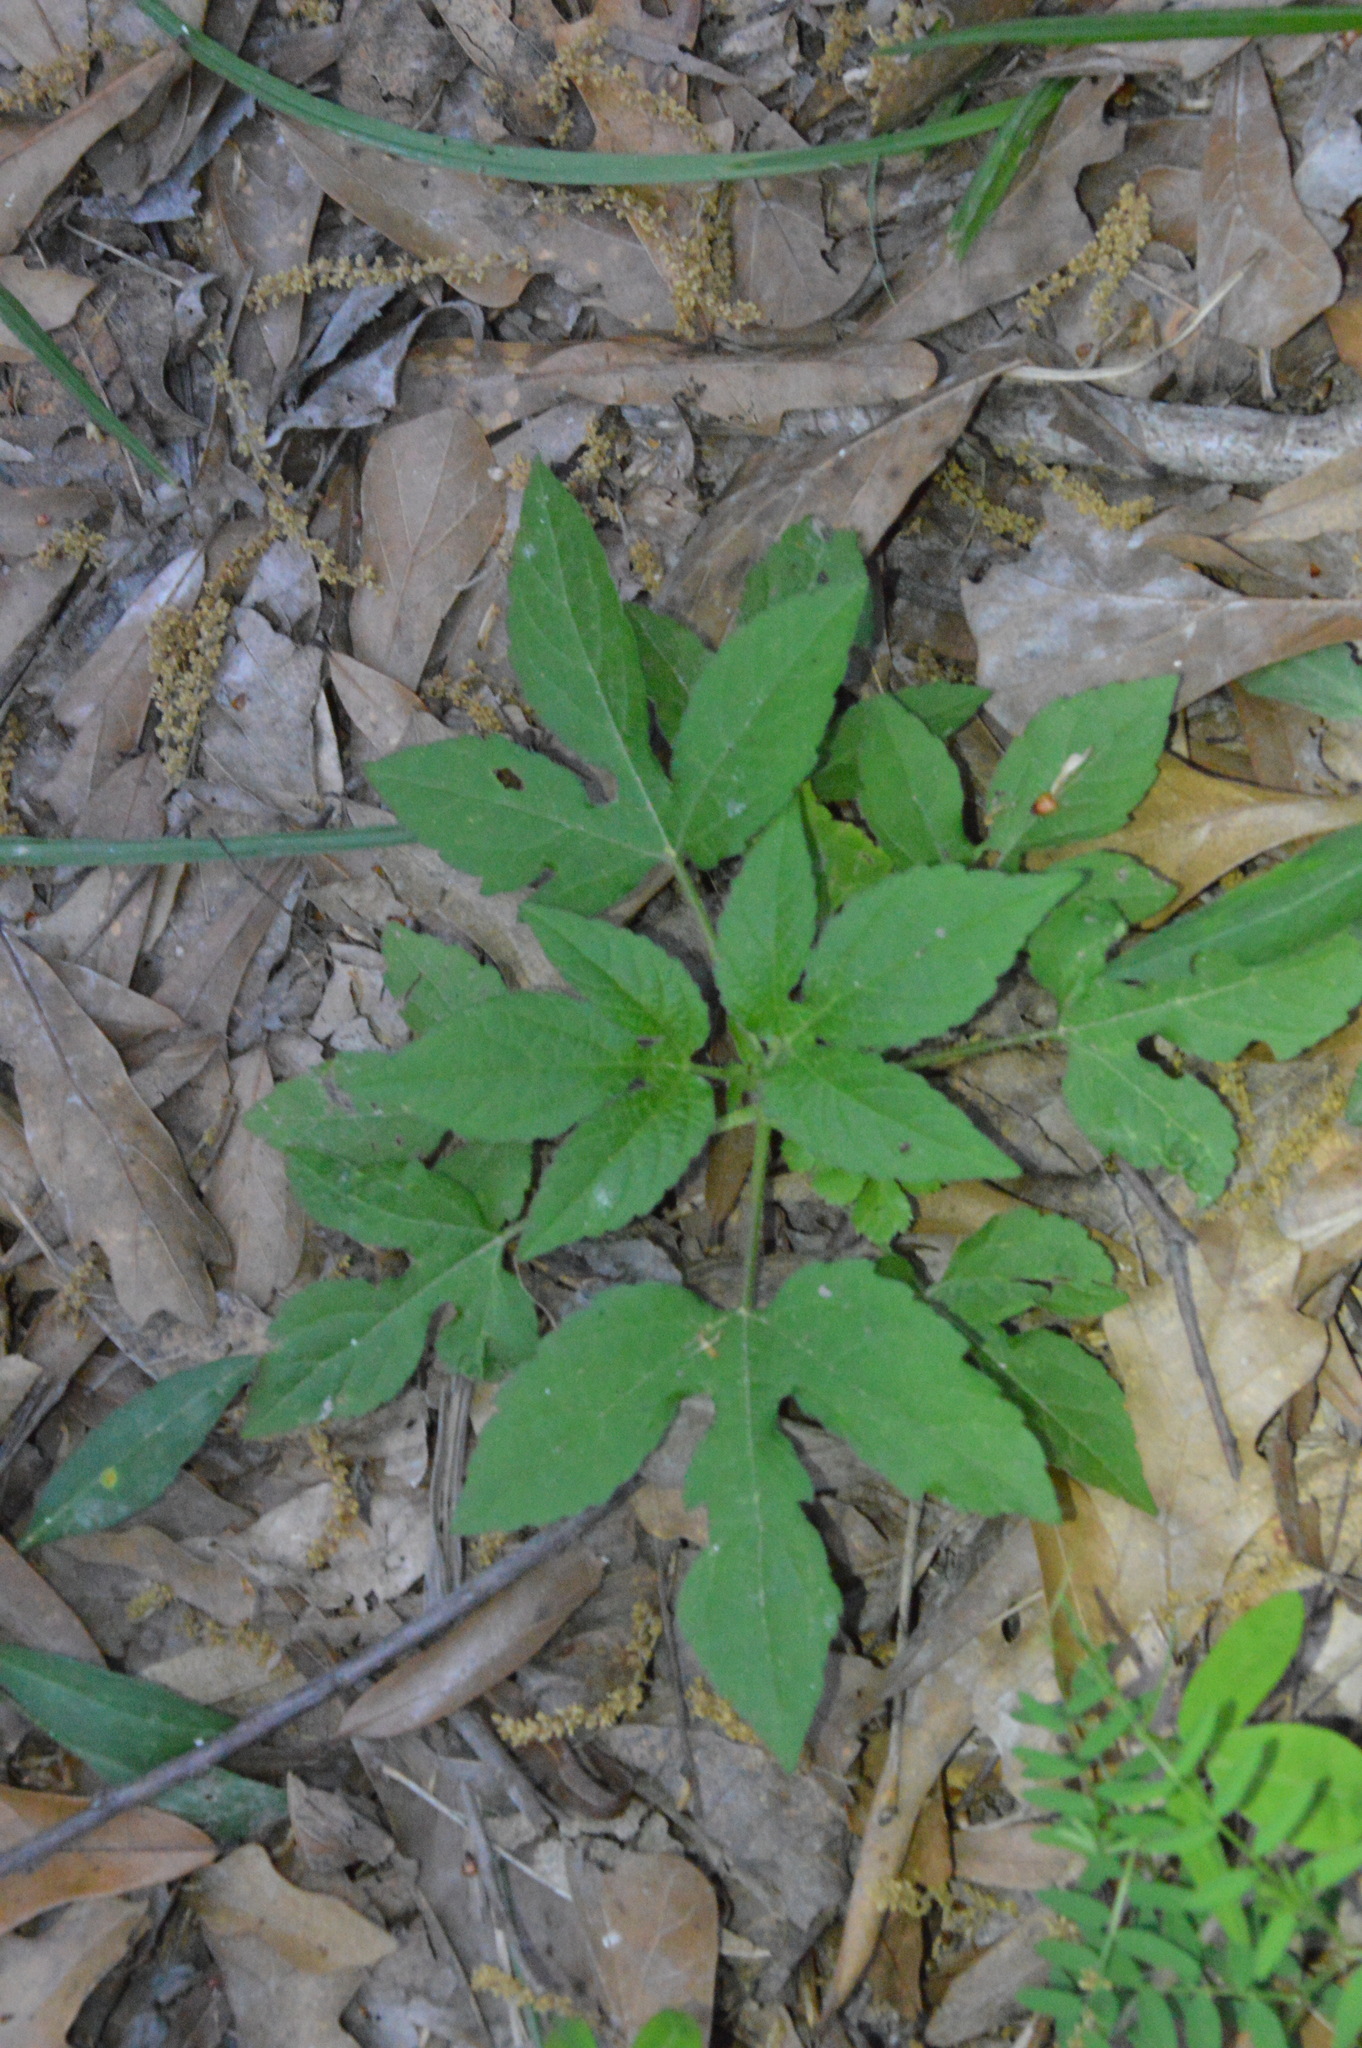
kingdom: Plantae
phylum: Tracheophyta
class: Magnoliopsida
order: Asterales
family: Asteraceae
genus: Ambrosia
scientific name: Ambrosia trifida
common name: Giant ragweed
